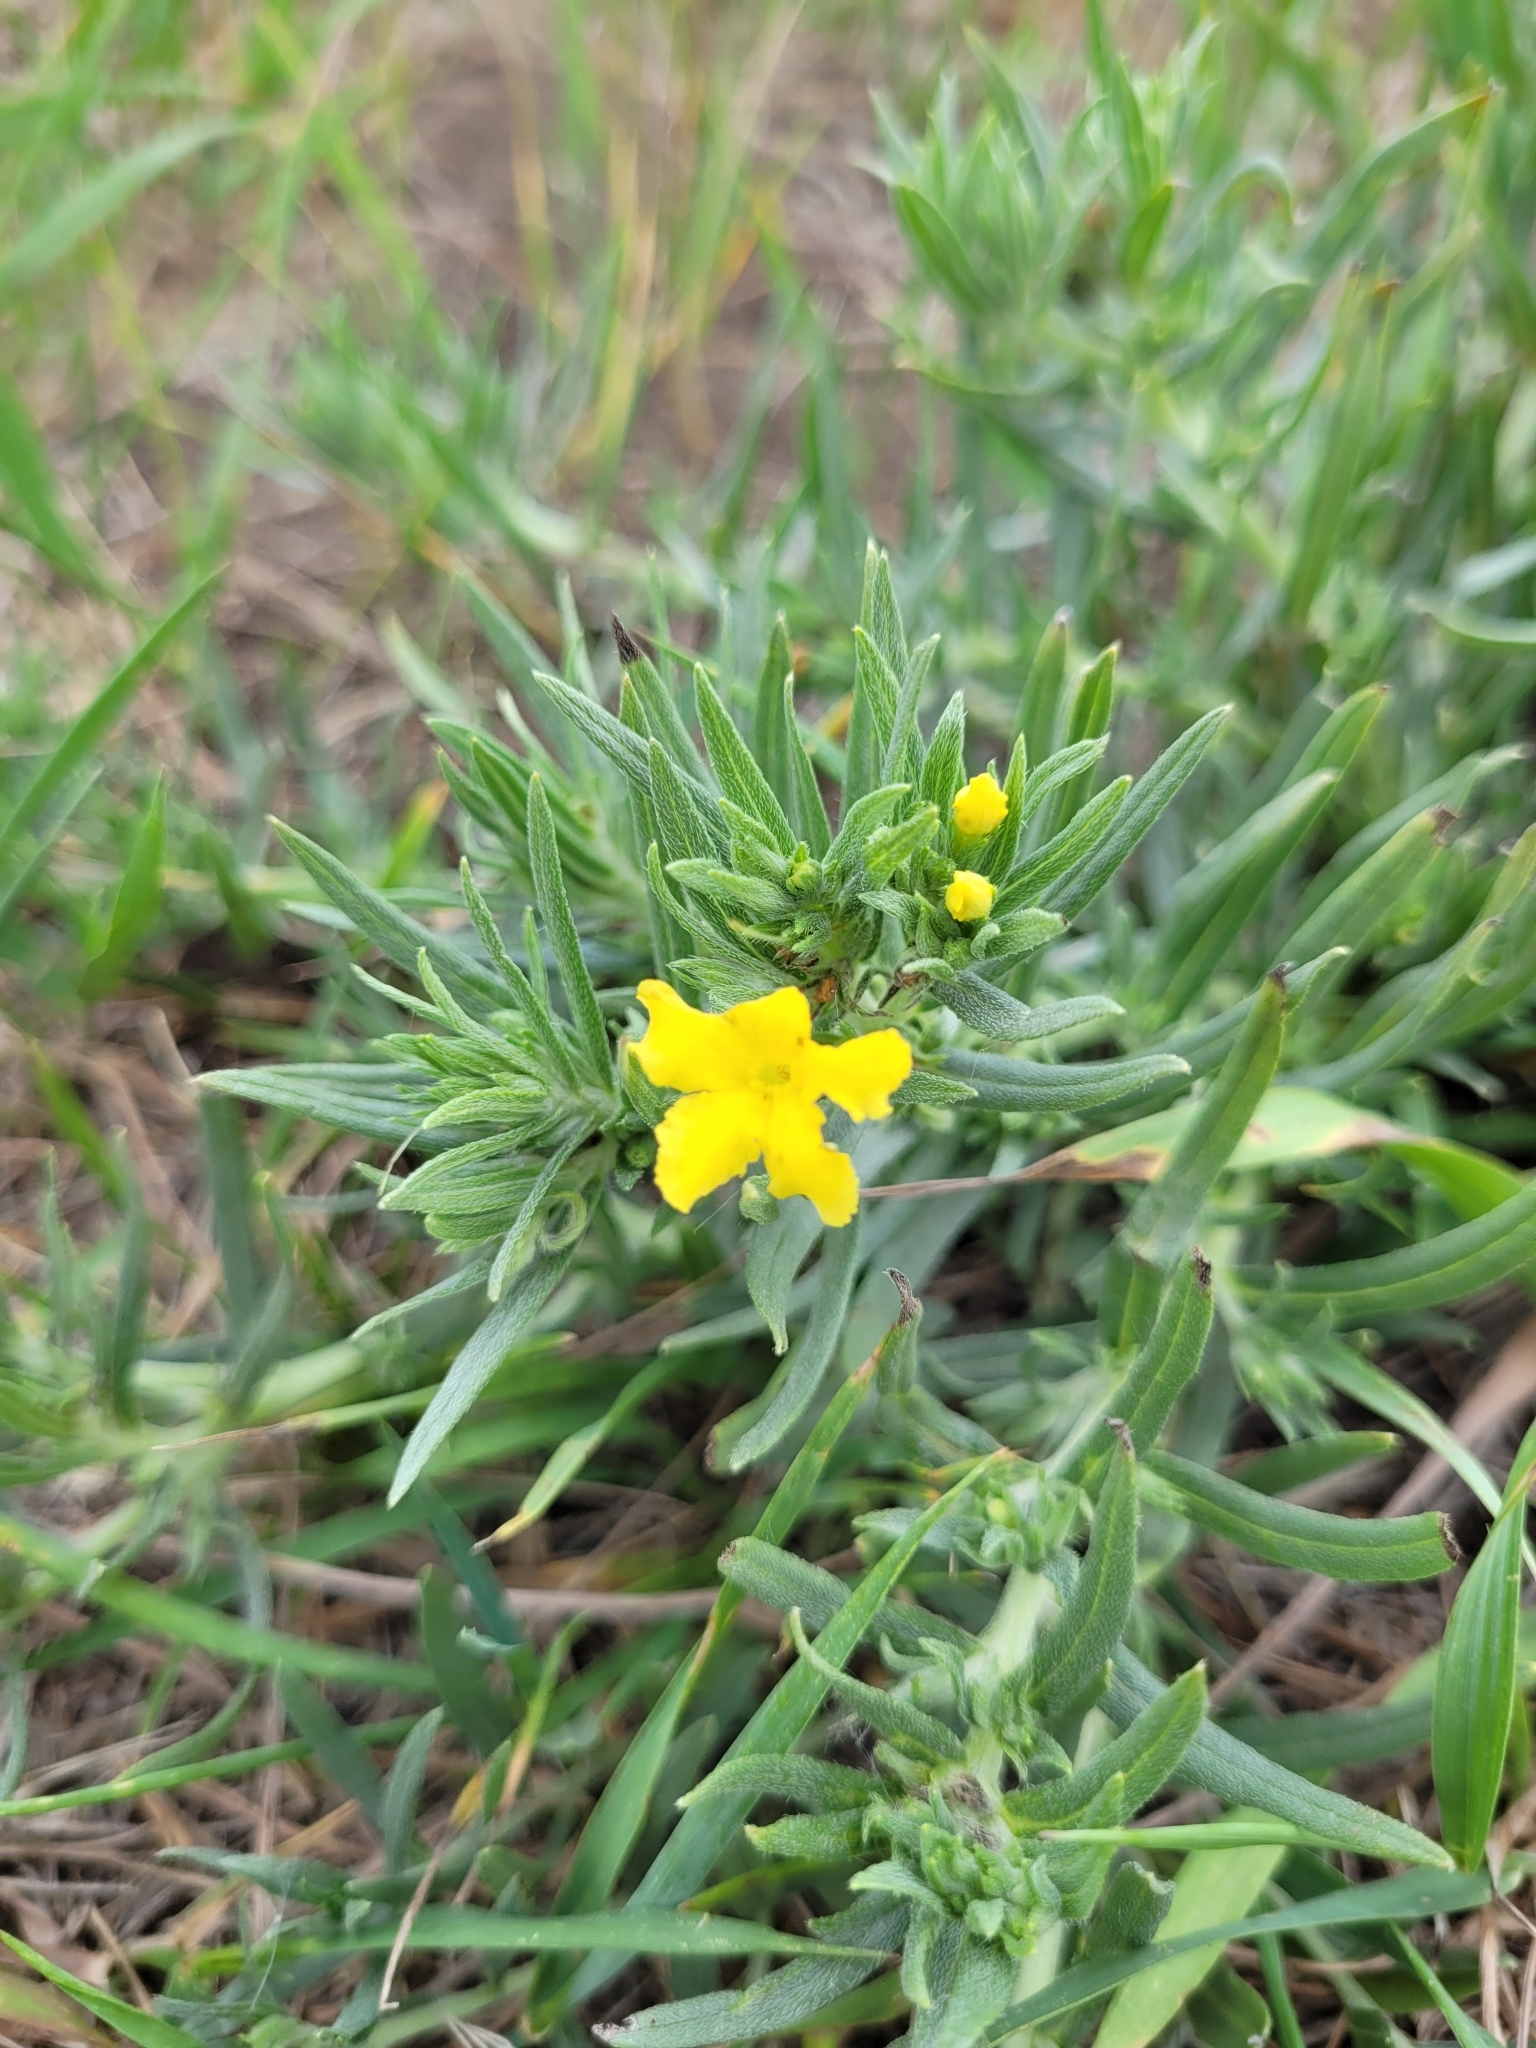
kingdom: Plantae
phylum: Tracheophyta
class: Magnoliopsida
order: Boraginales
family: Boraginaceae
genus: Lithospermum
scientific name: Lithospermum incisum
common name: Fringed gromwell
